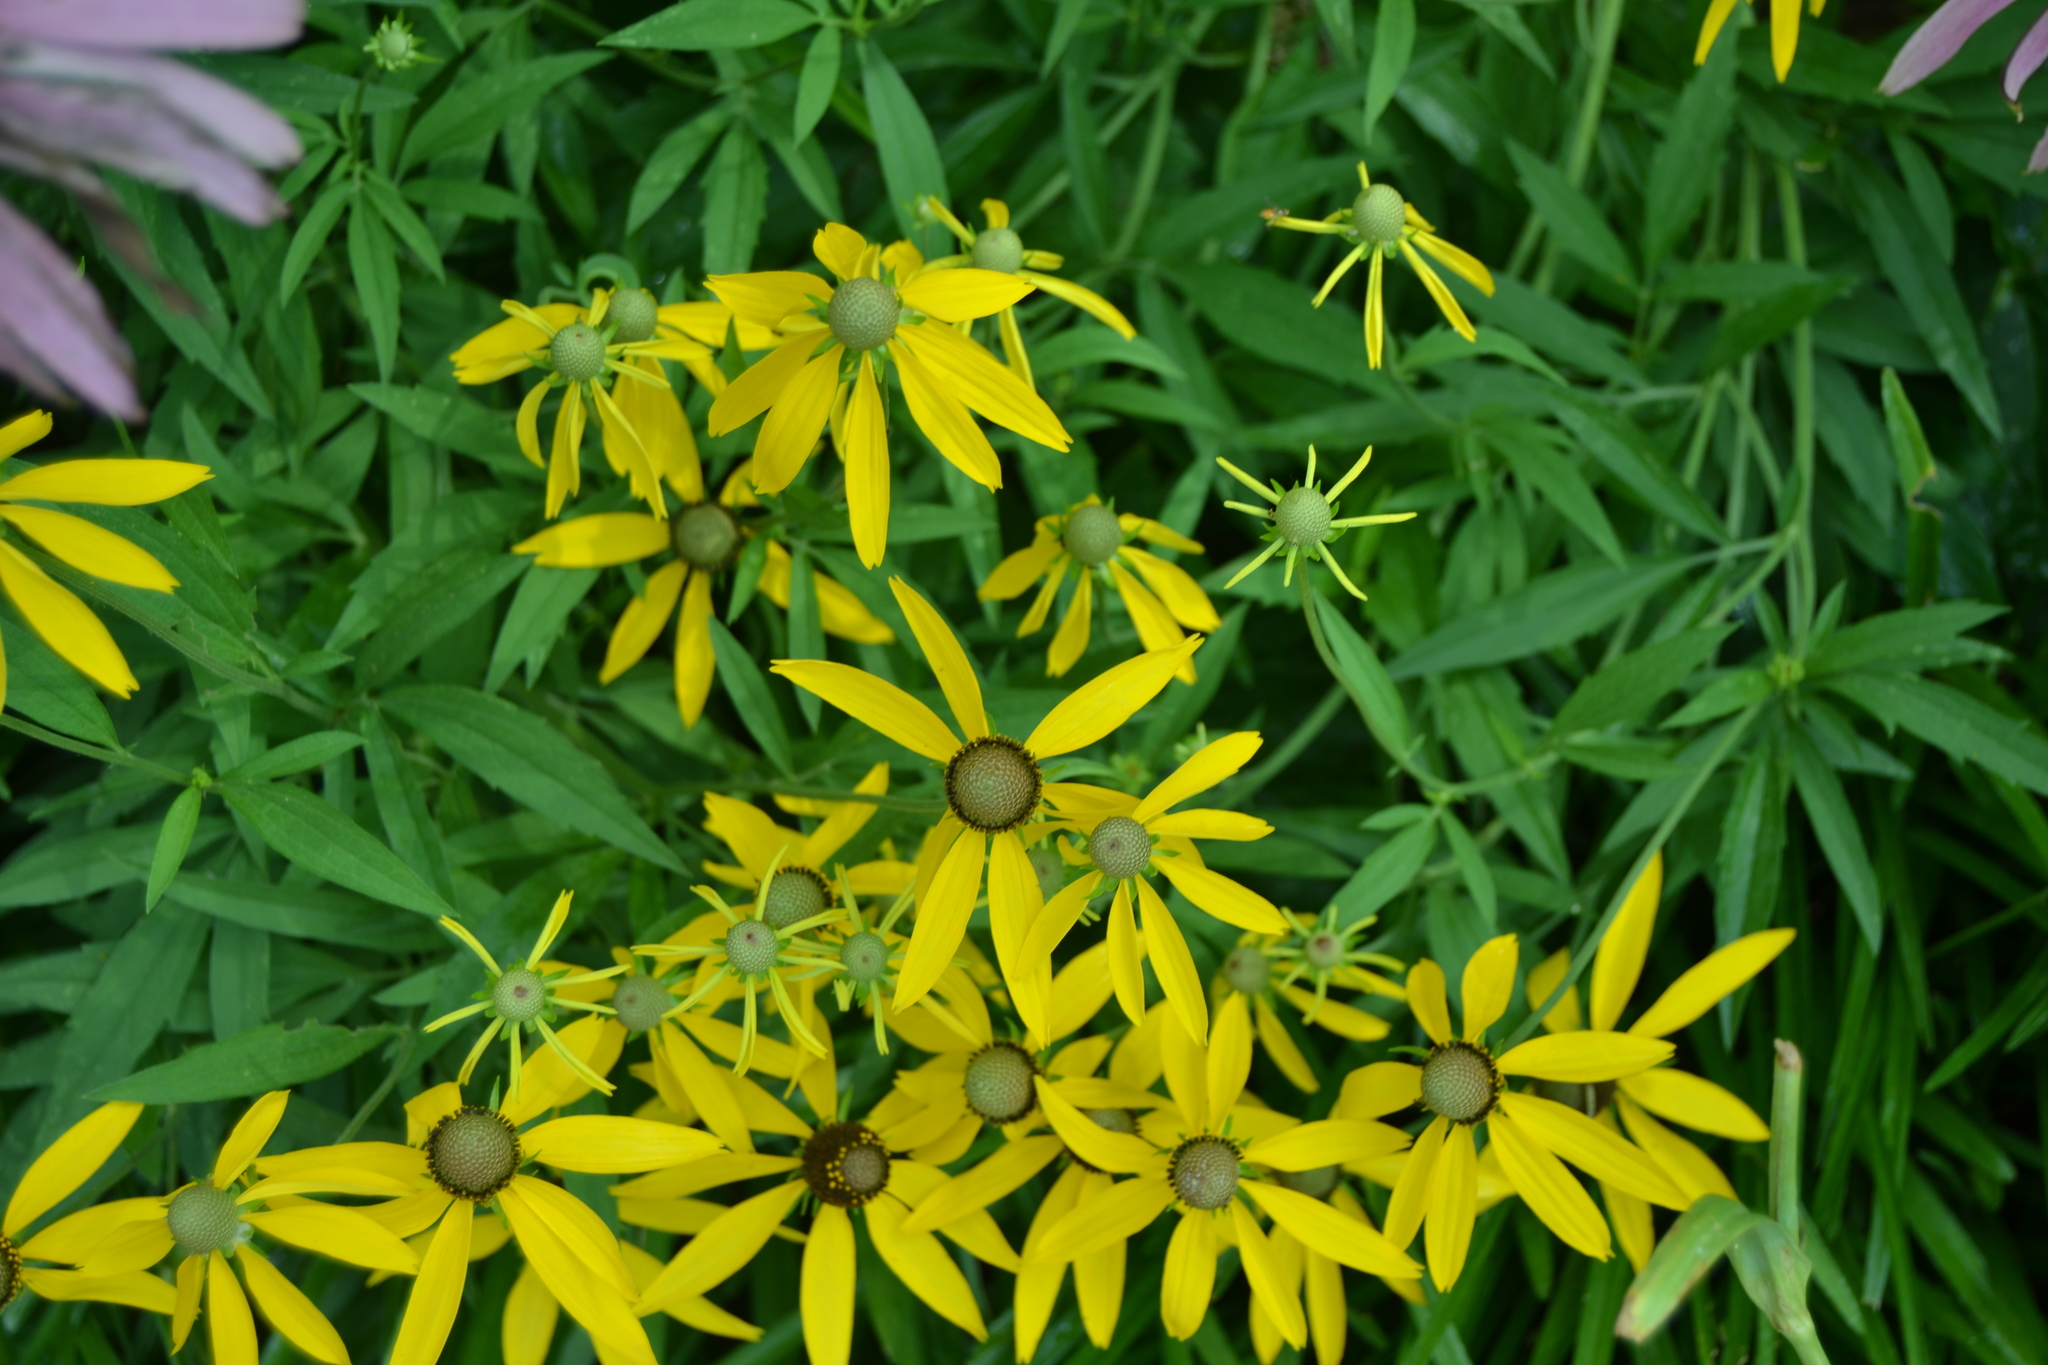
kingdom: Plantae
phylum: Tracheophyta
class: Magnoliopsida
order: Asterales
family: Asteraceae
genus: Ratibida
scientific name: Ratibida pinnata
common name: Drooping prairie-coneflower
